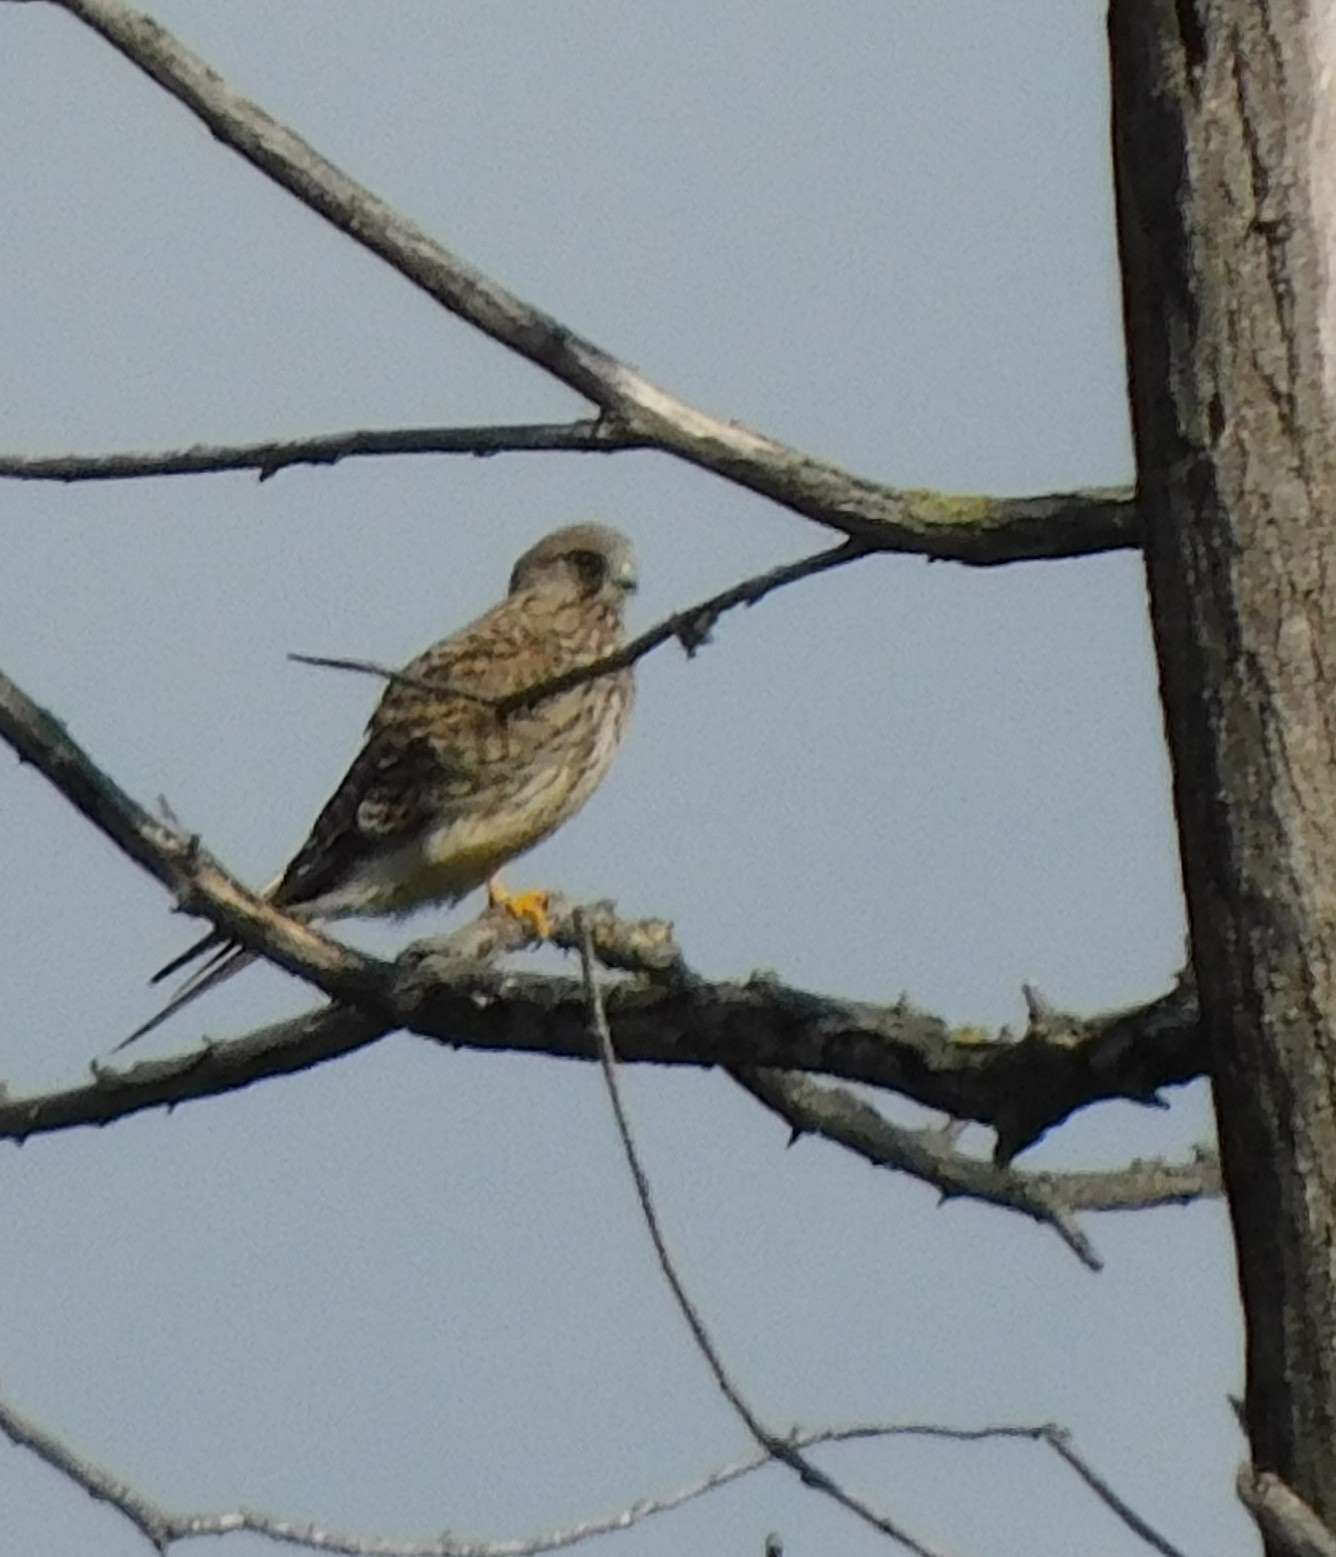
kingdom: Animalia
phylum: Chordata
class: Aves
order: Falconiformes
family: Falconidae
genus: Falco
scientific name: Falco tinnunculus
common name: Common kestrel
